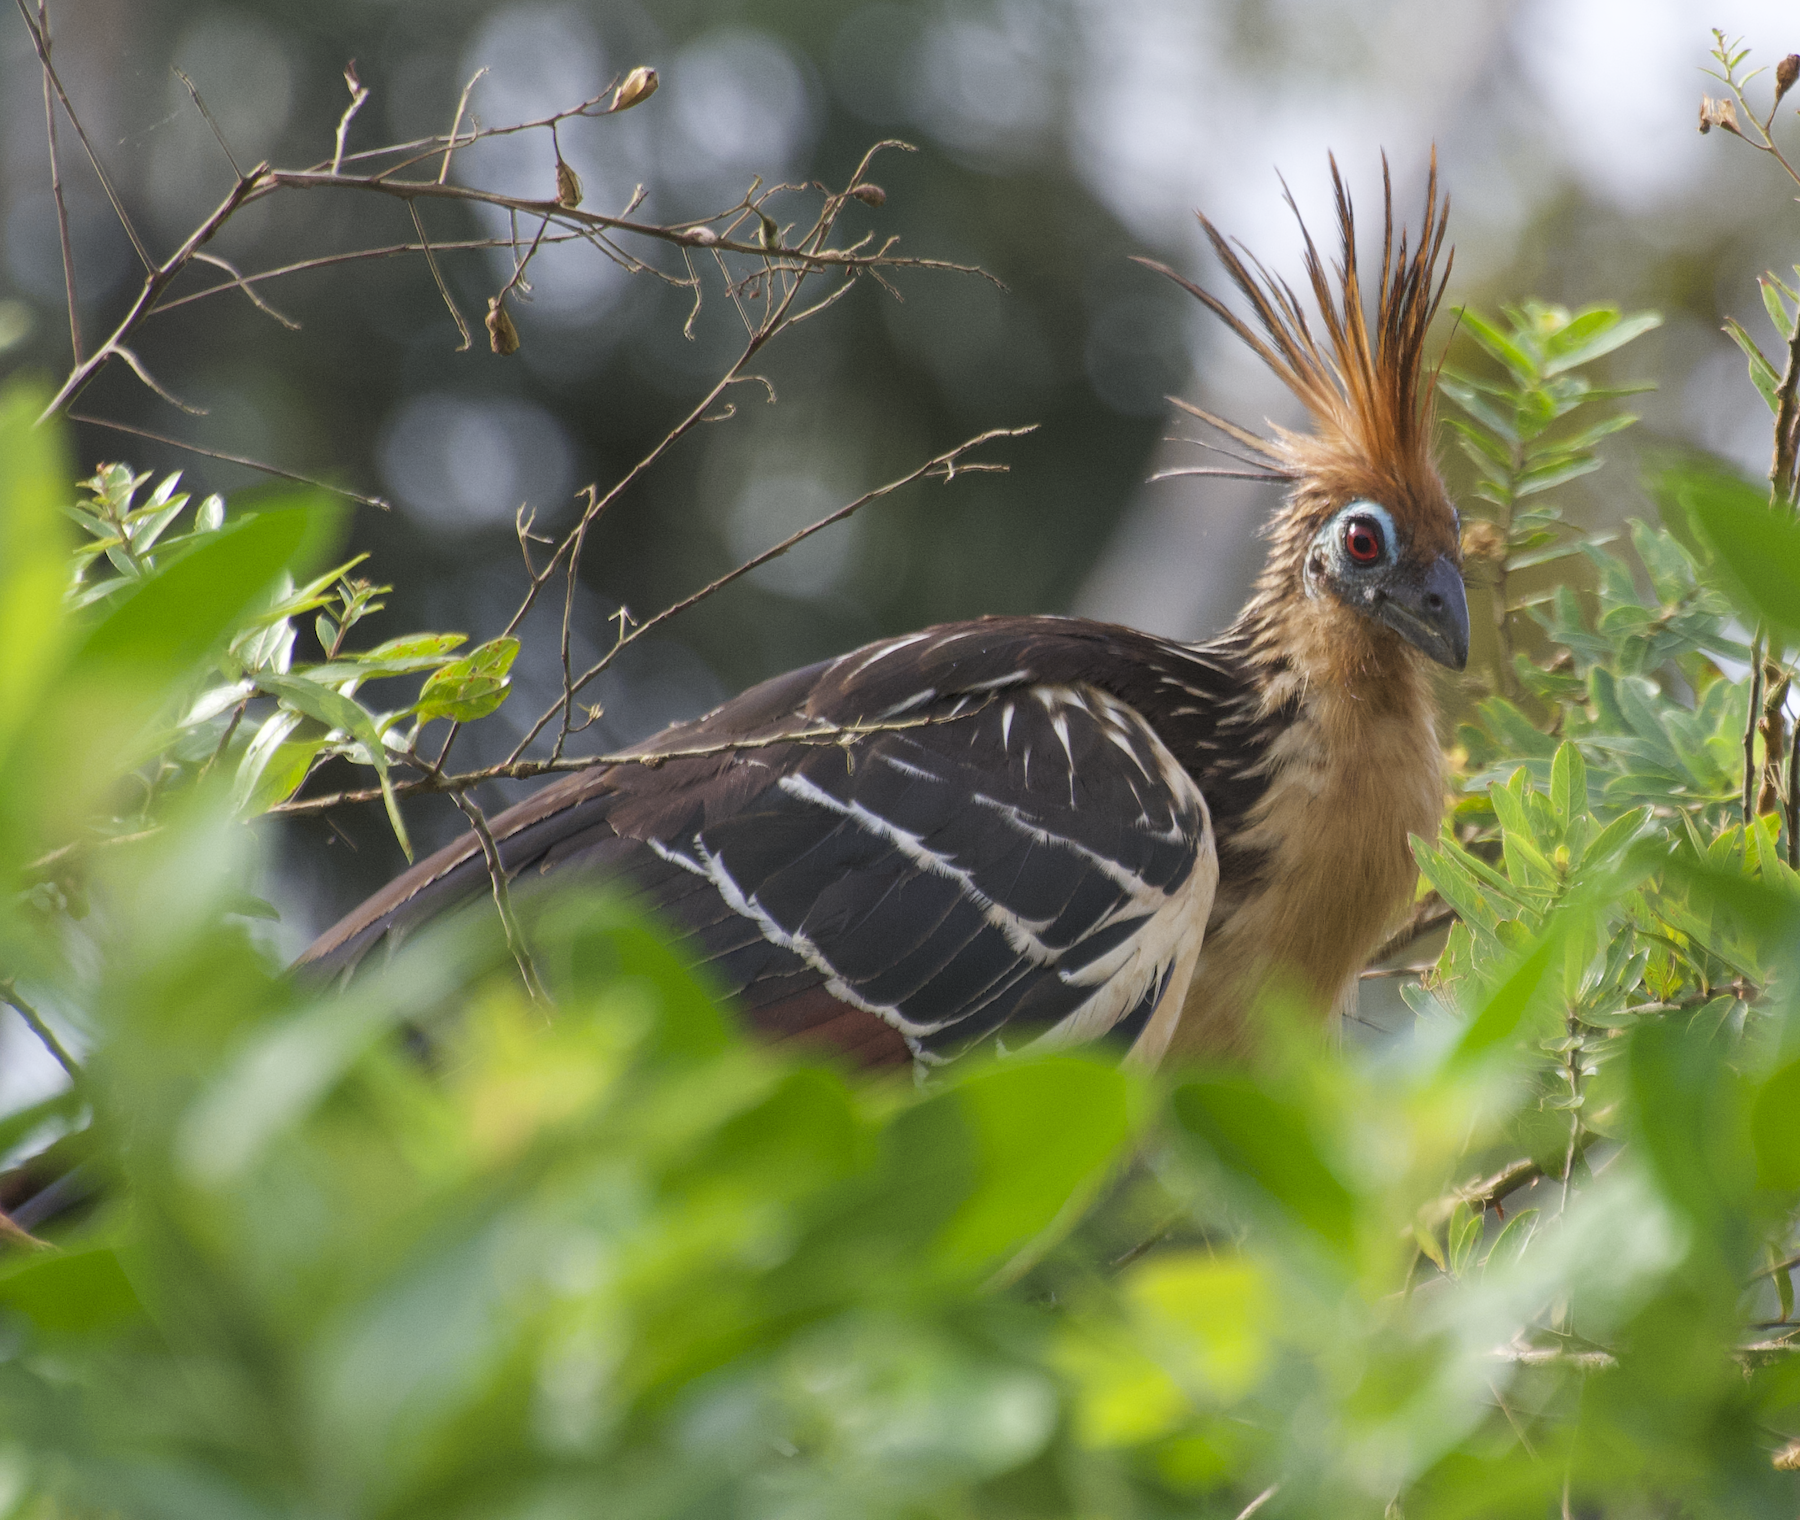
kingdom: Animalia
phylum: Chordata
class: Aves
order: Opisthocomiformes
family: Opisthocomidae
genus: Opisthocomus
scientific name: Opisthocomus hoazin
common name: Hoatzin
